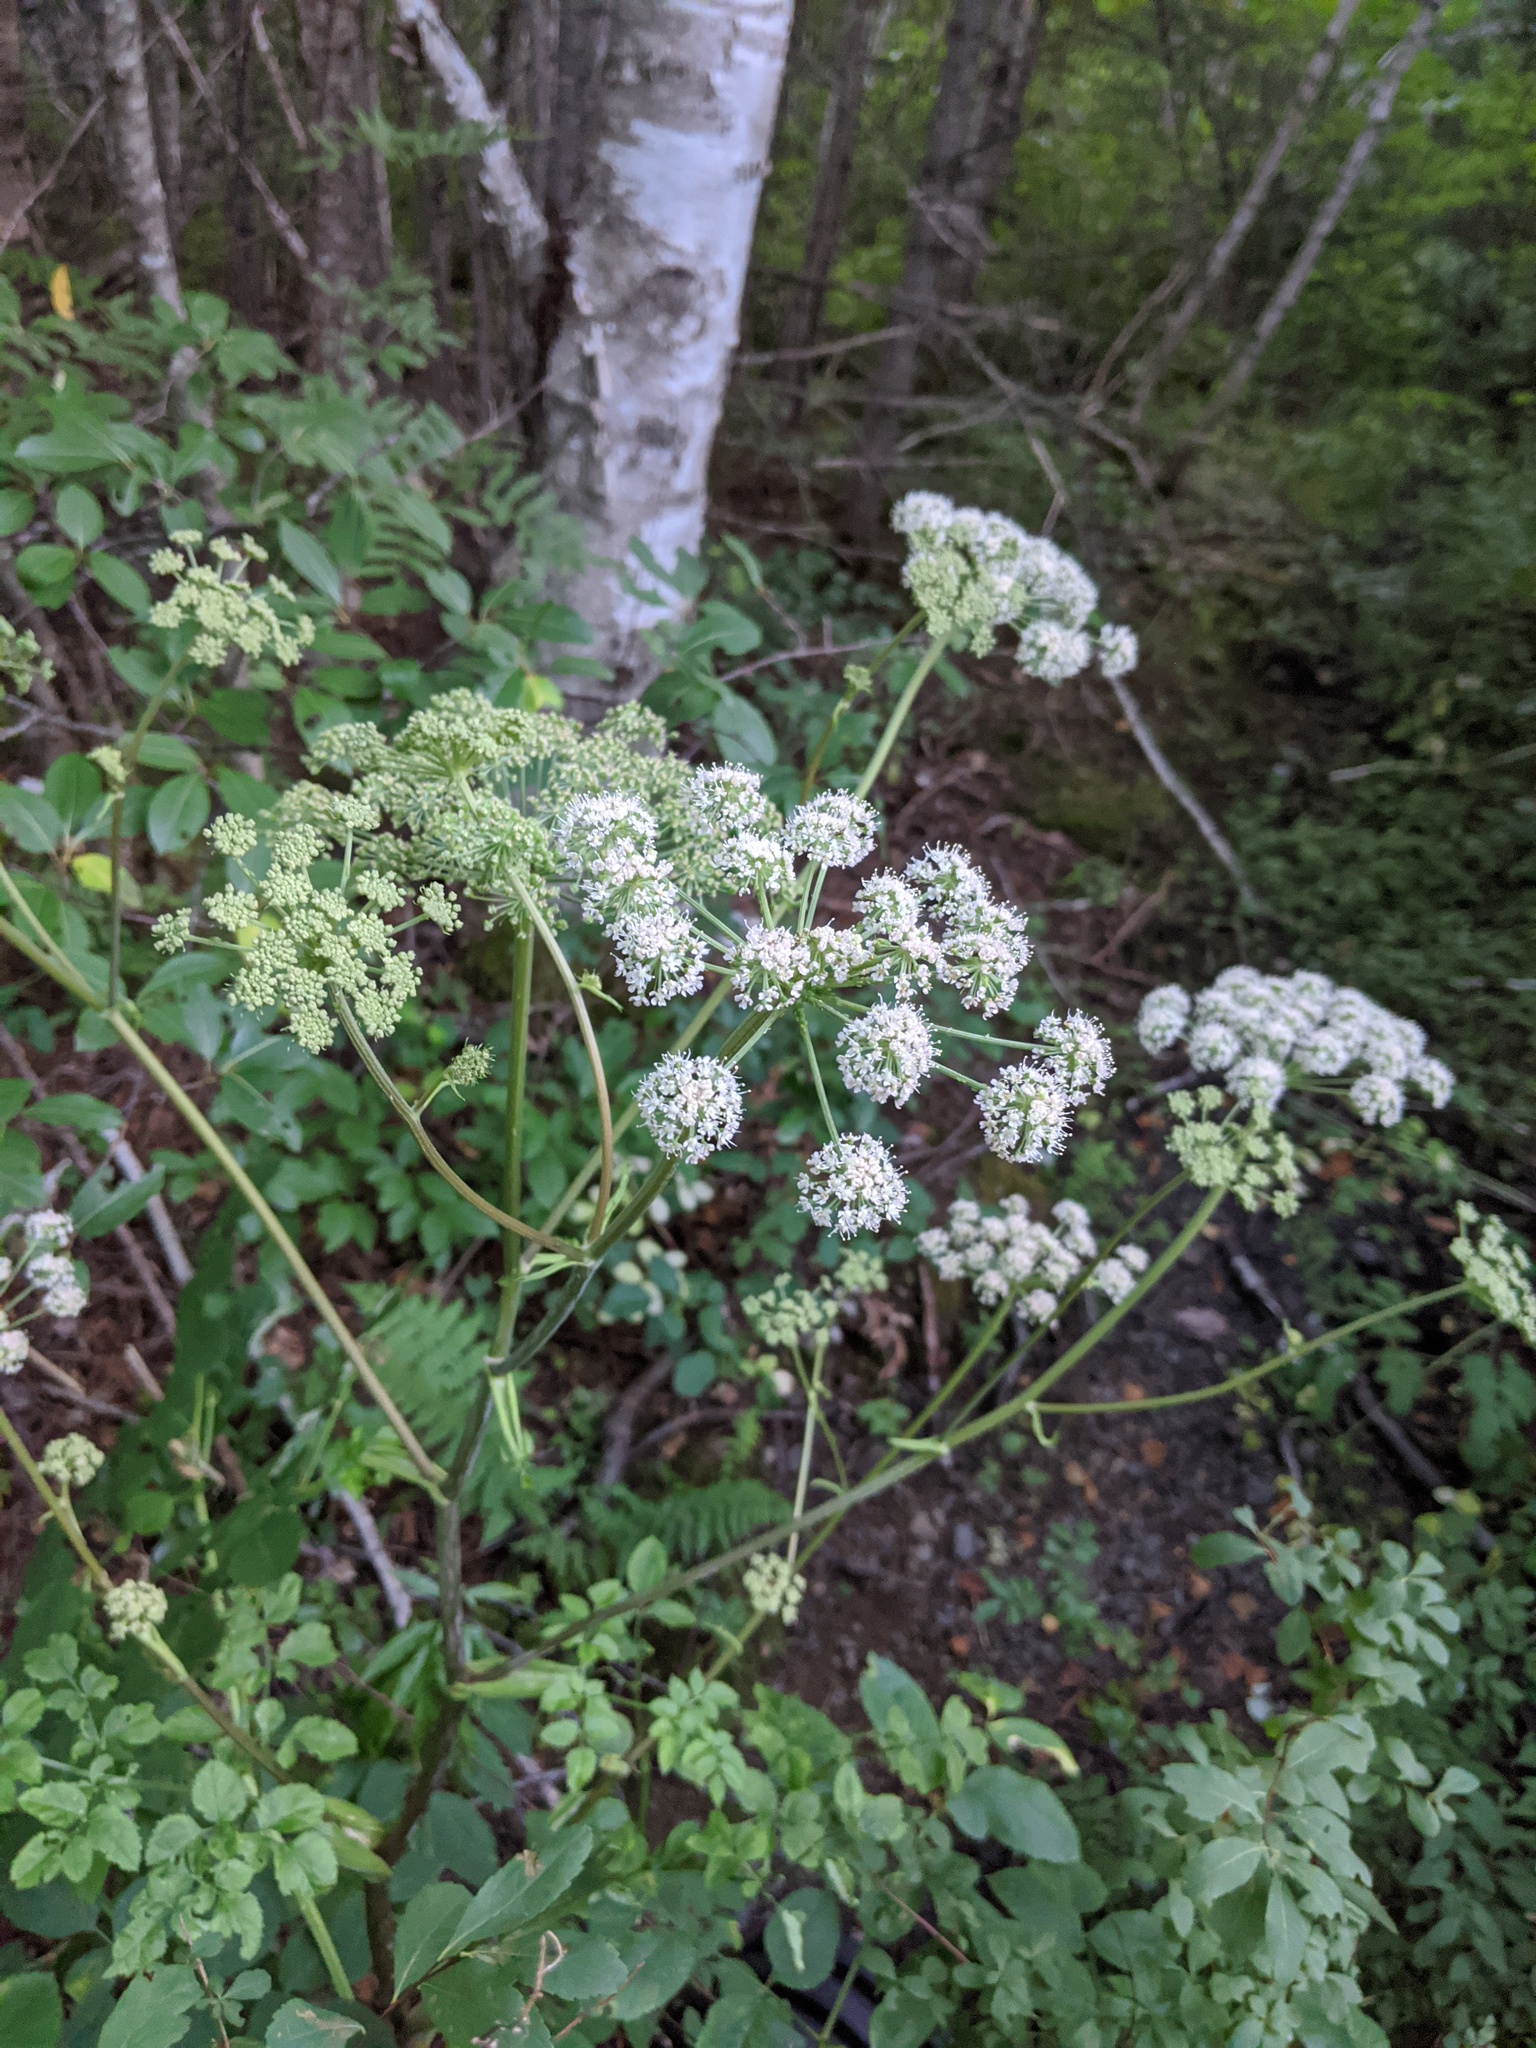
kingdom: Plantae
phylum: Tracheophyta
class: Magnoliopsida
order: Apiales
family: Apiaceae
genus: Angelica
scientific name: Angelica sylvestris
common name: Wild angelica
